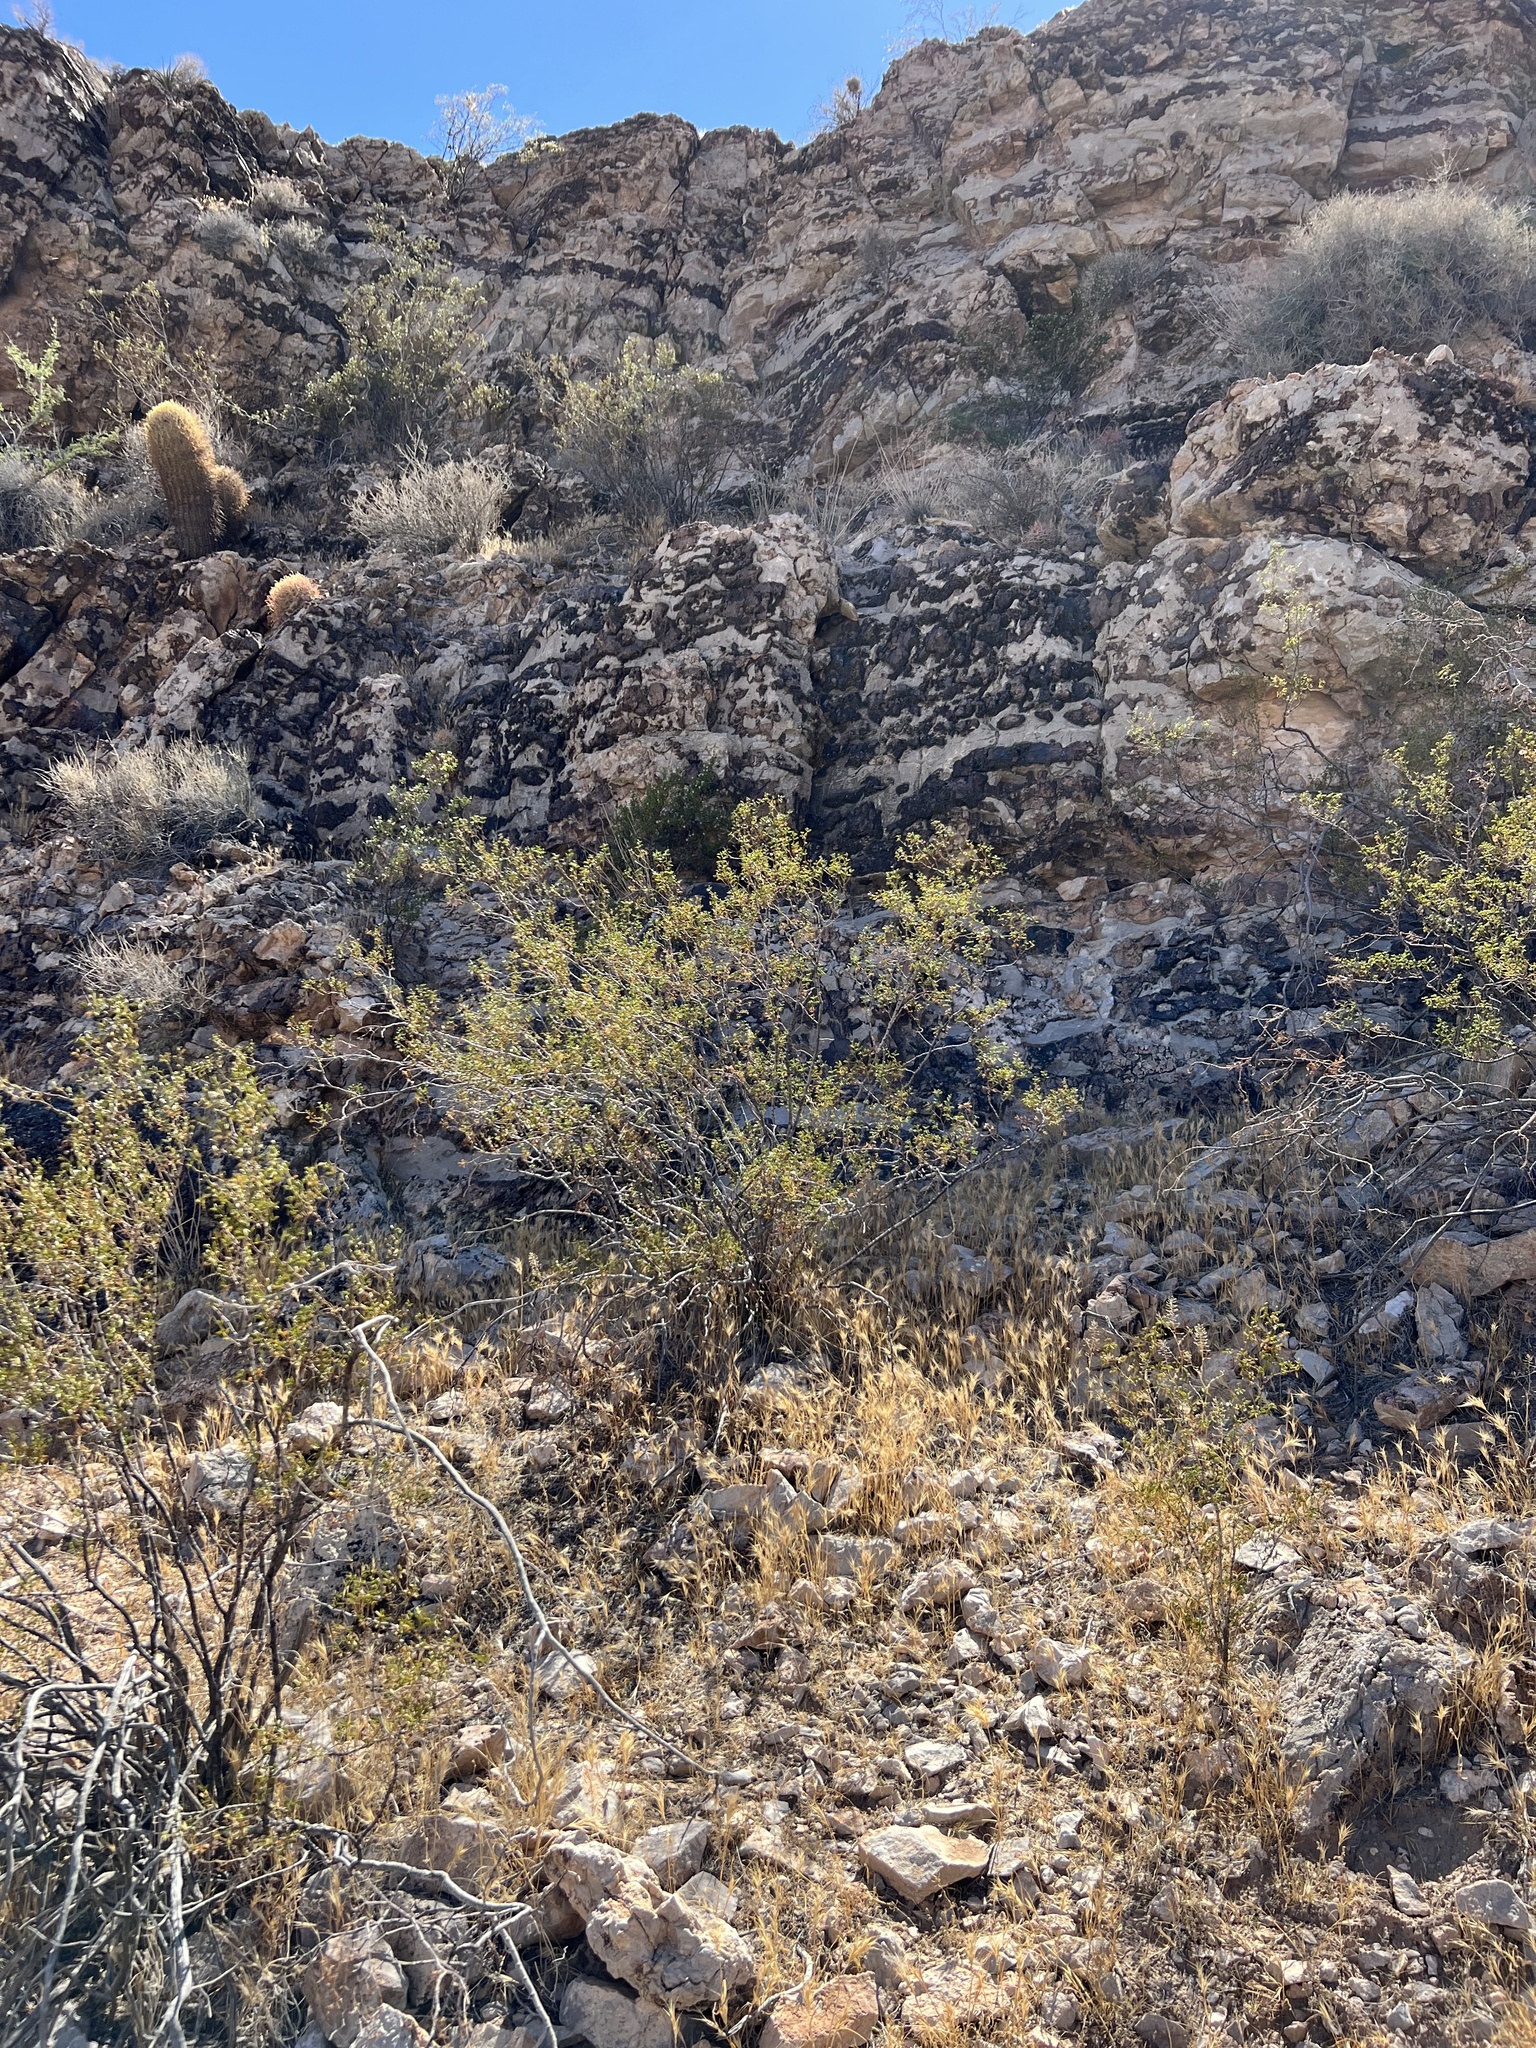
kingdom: Plantae
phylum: Tracheophyta
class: Magnoliopsida
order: Zygophyllales
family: Zygophyllaceae
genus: Larrea
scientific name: Larrea tridentata
